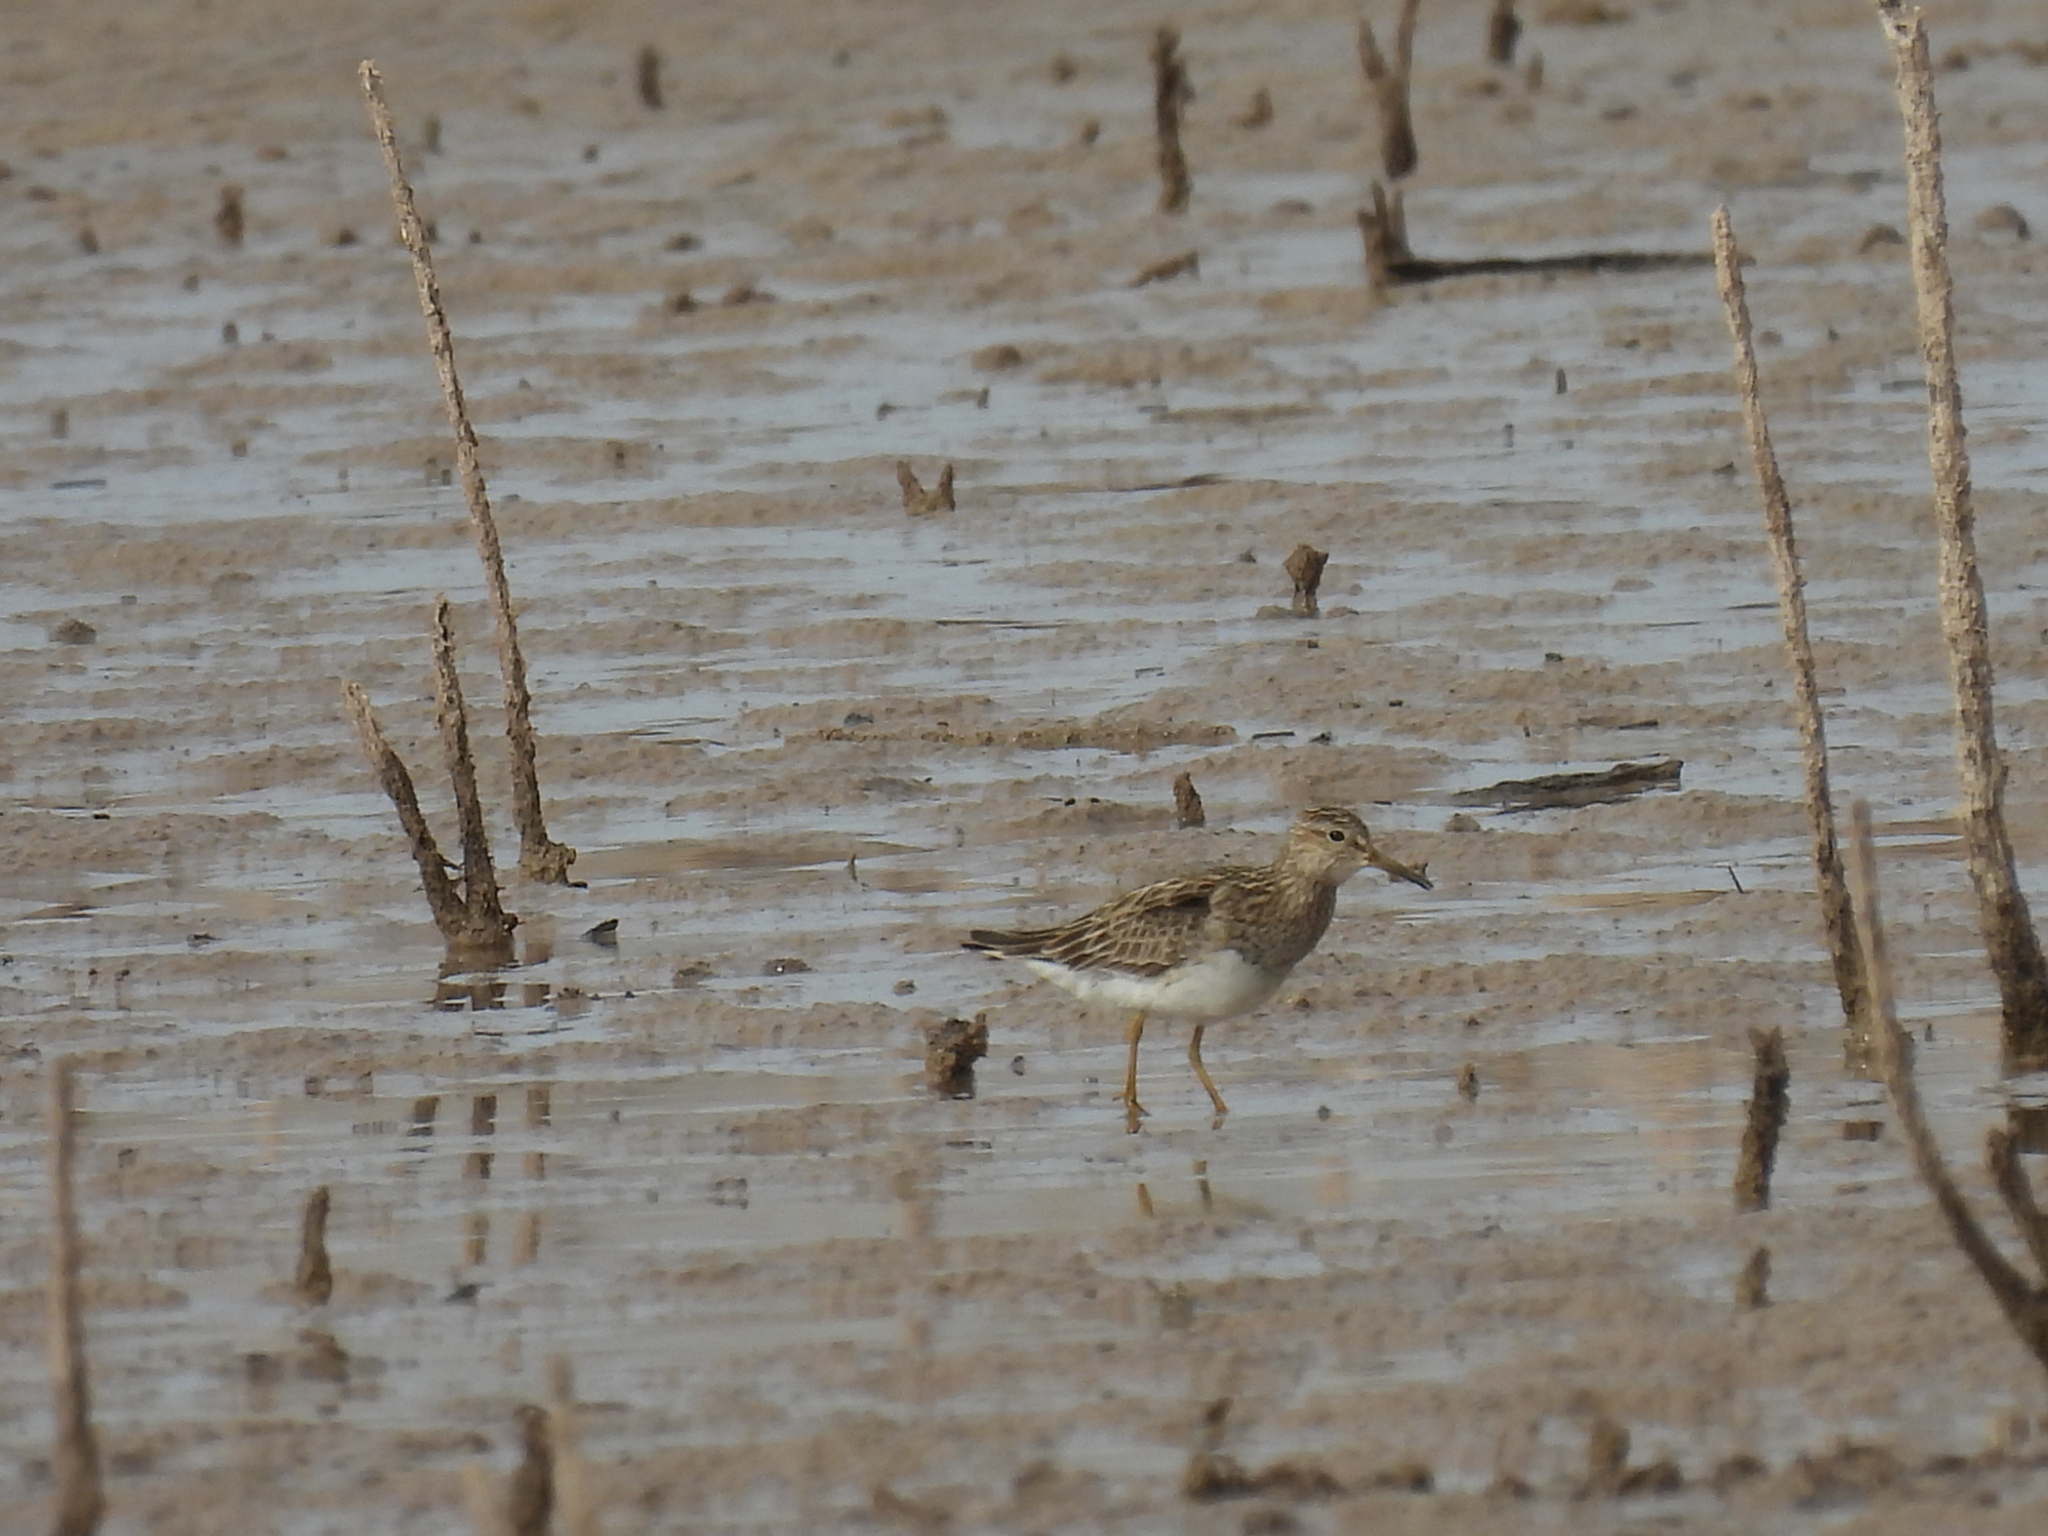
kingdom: Animalia
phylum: Chordata
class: Aves
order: Charadriiformes
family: Scolopacidae
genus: Calidris
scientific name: Calidris melanotos
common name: Pectoral sandpiper
